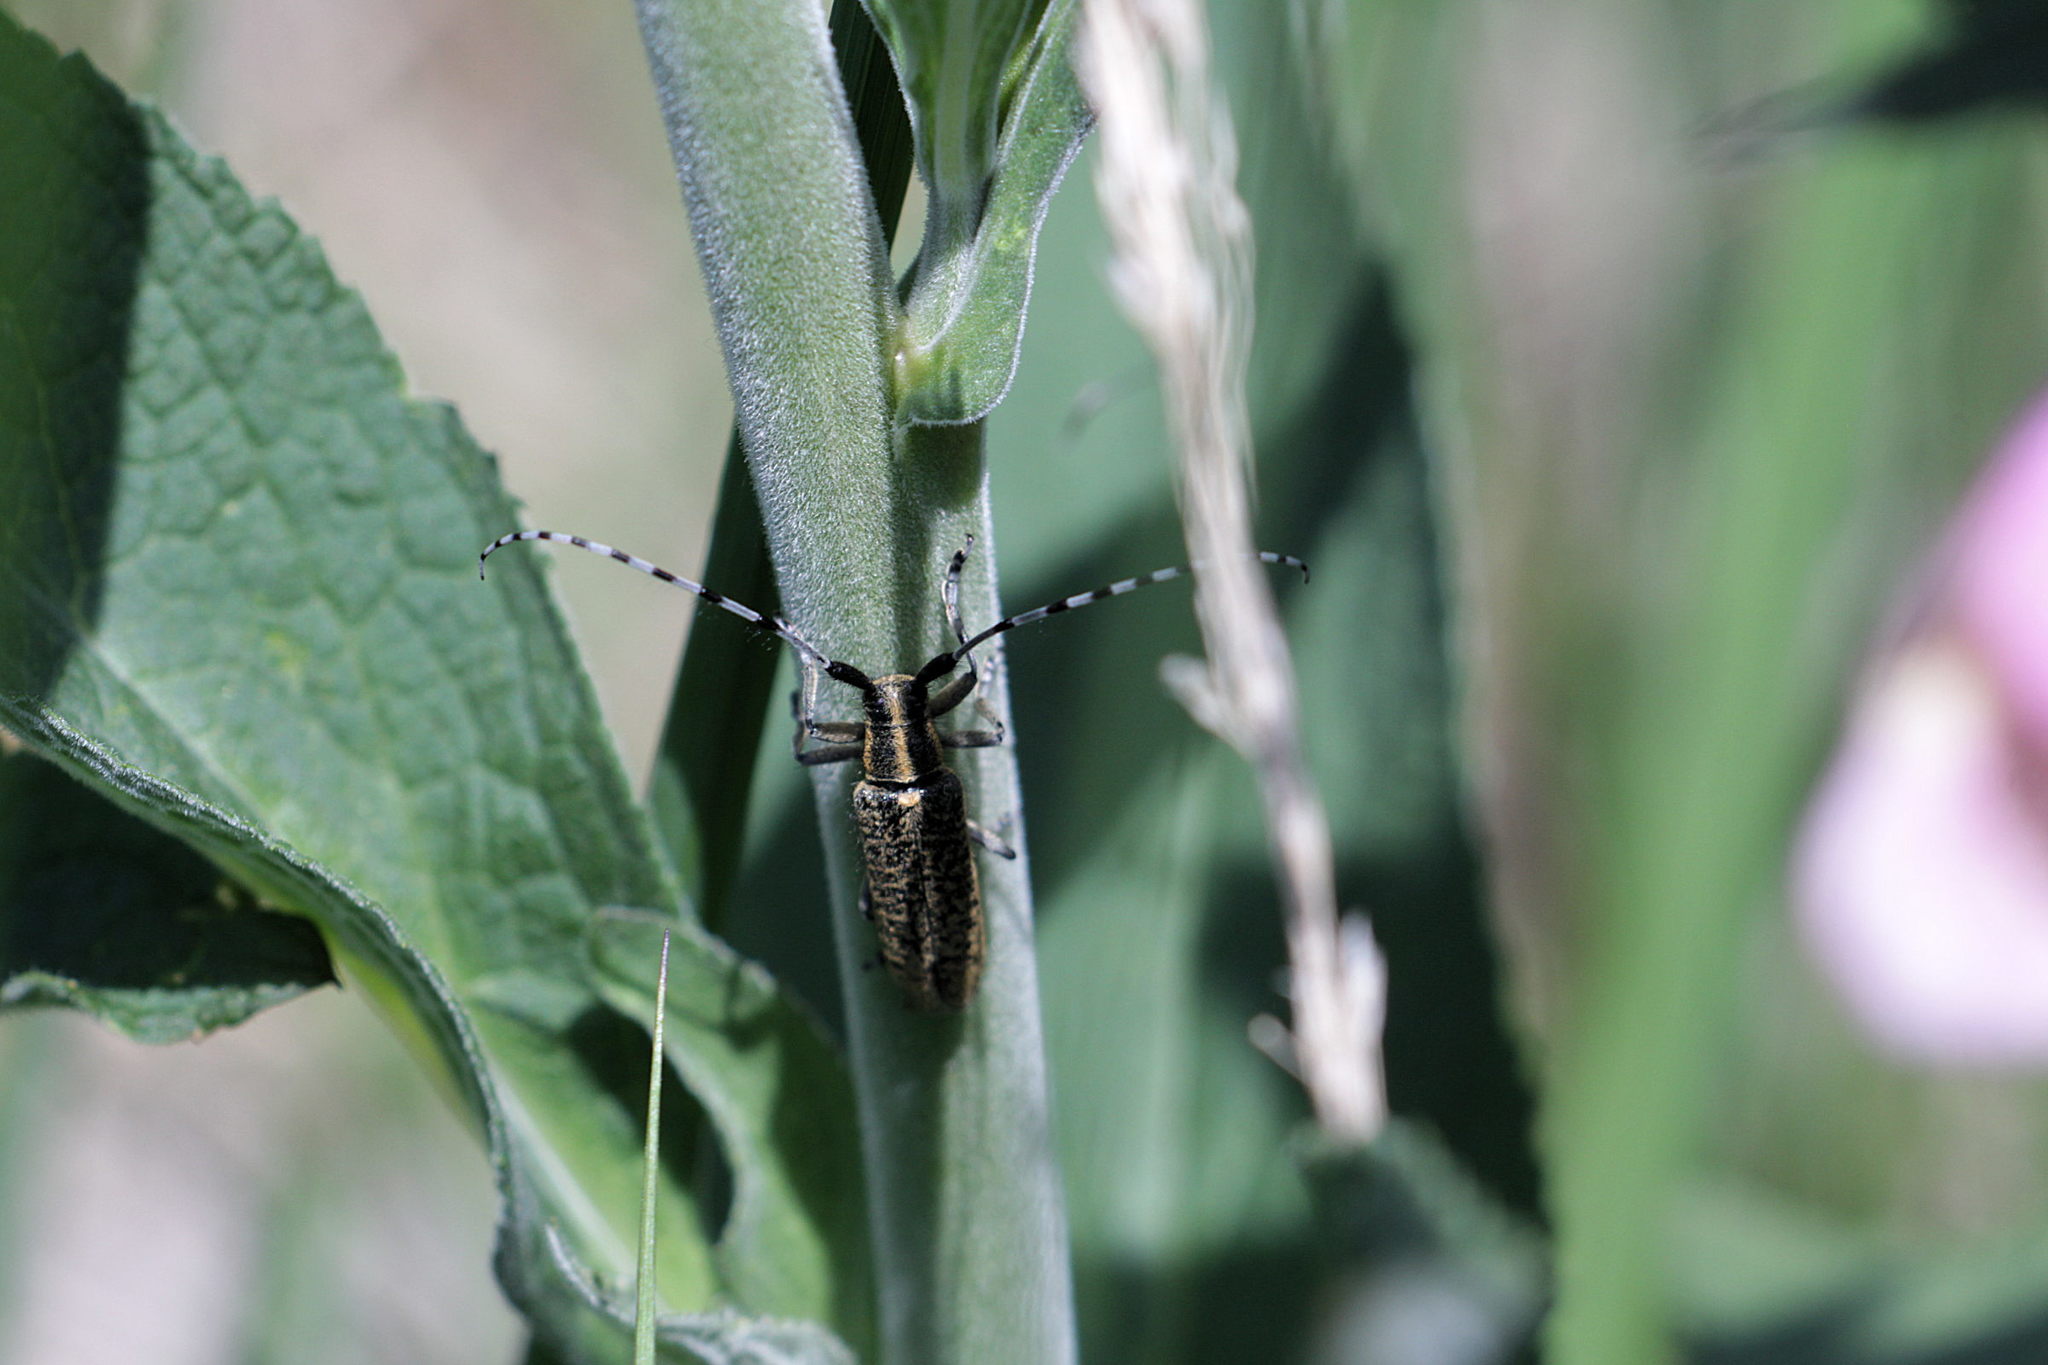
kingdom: Animalia
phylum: Arthropoda
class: Insecta
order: Coleoptera
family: Cerambycidae
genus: Agapanthia
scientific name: Agapanthia villosoviridescens
